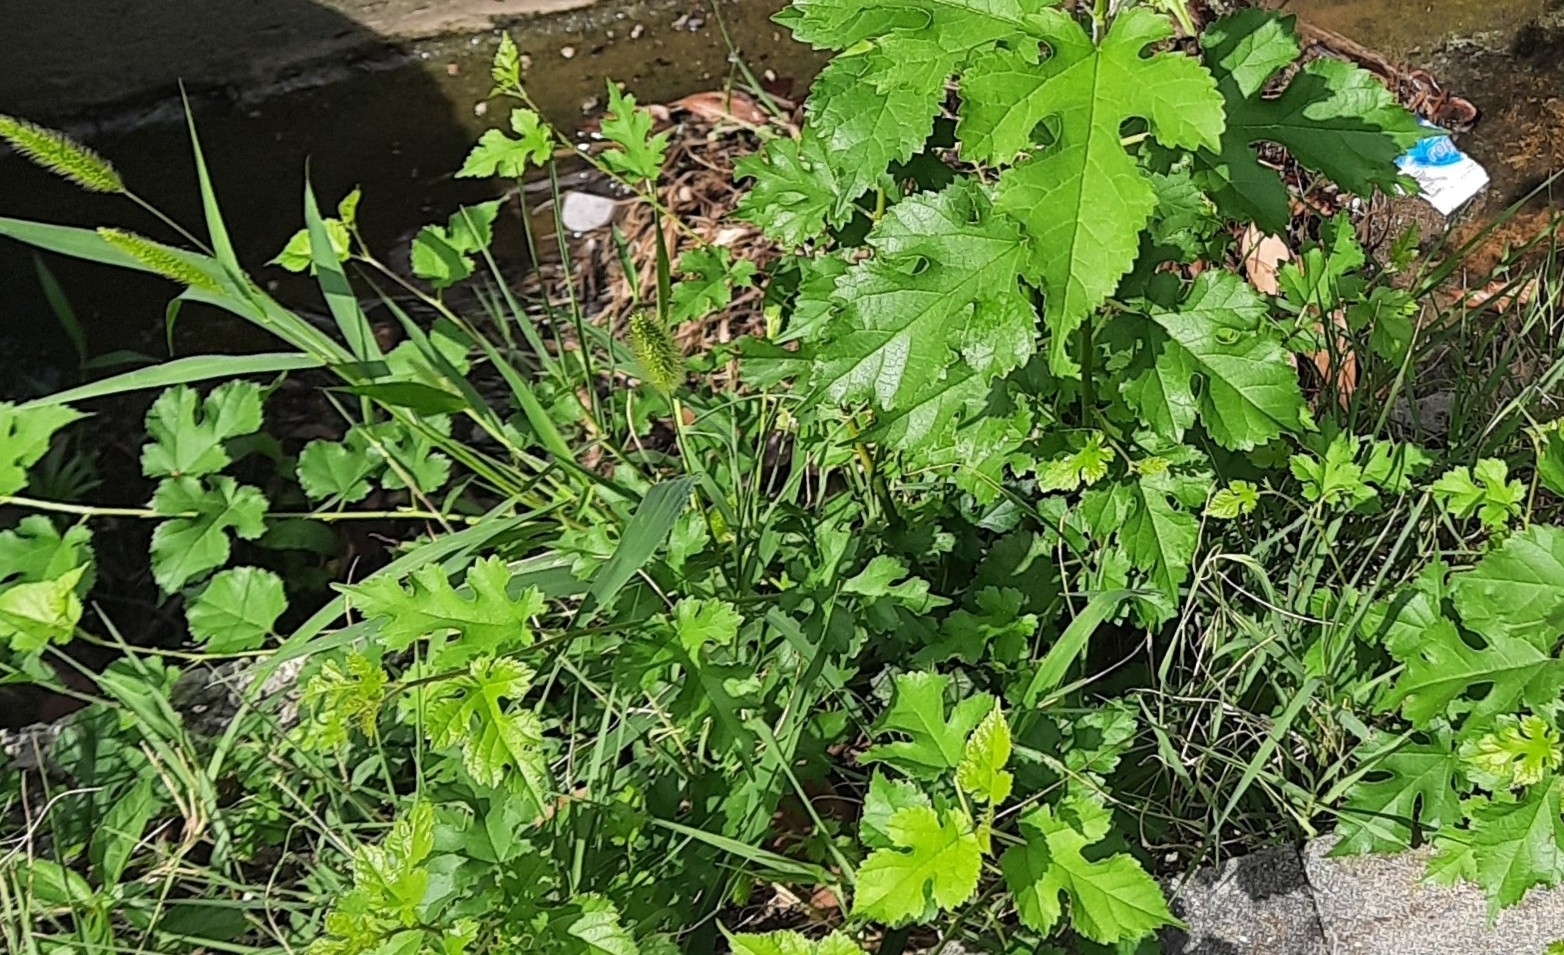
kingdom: Plantae
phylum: Tracheophyta
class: Magnoliopsida
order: Rosales
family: Moraceae
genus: Morus
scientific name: Morus alba
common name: White mulberry
